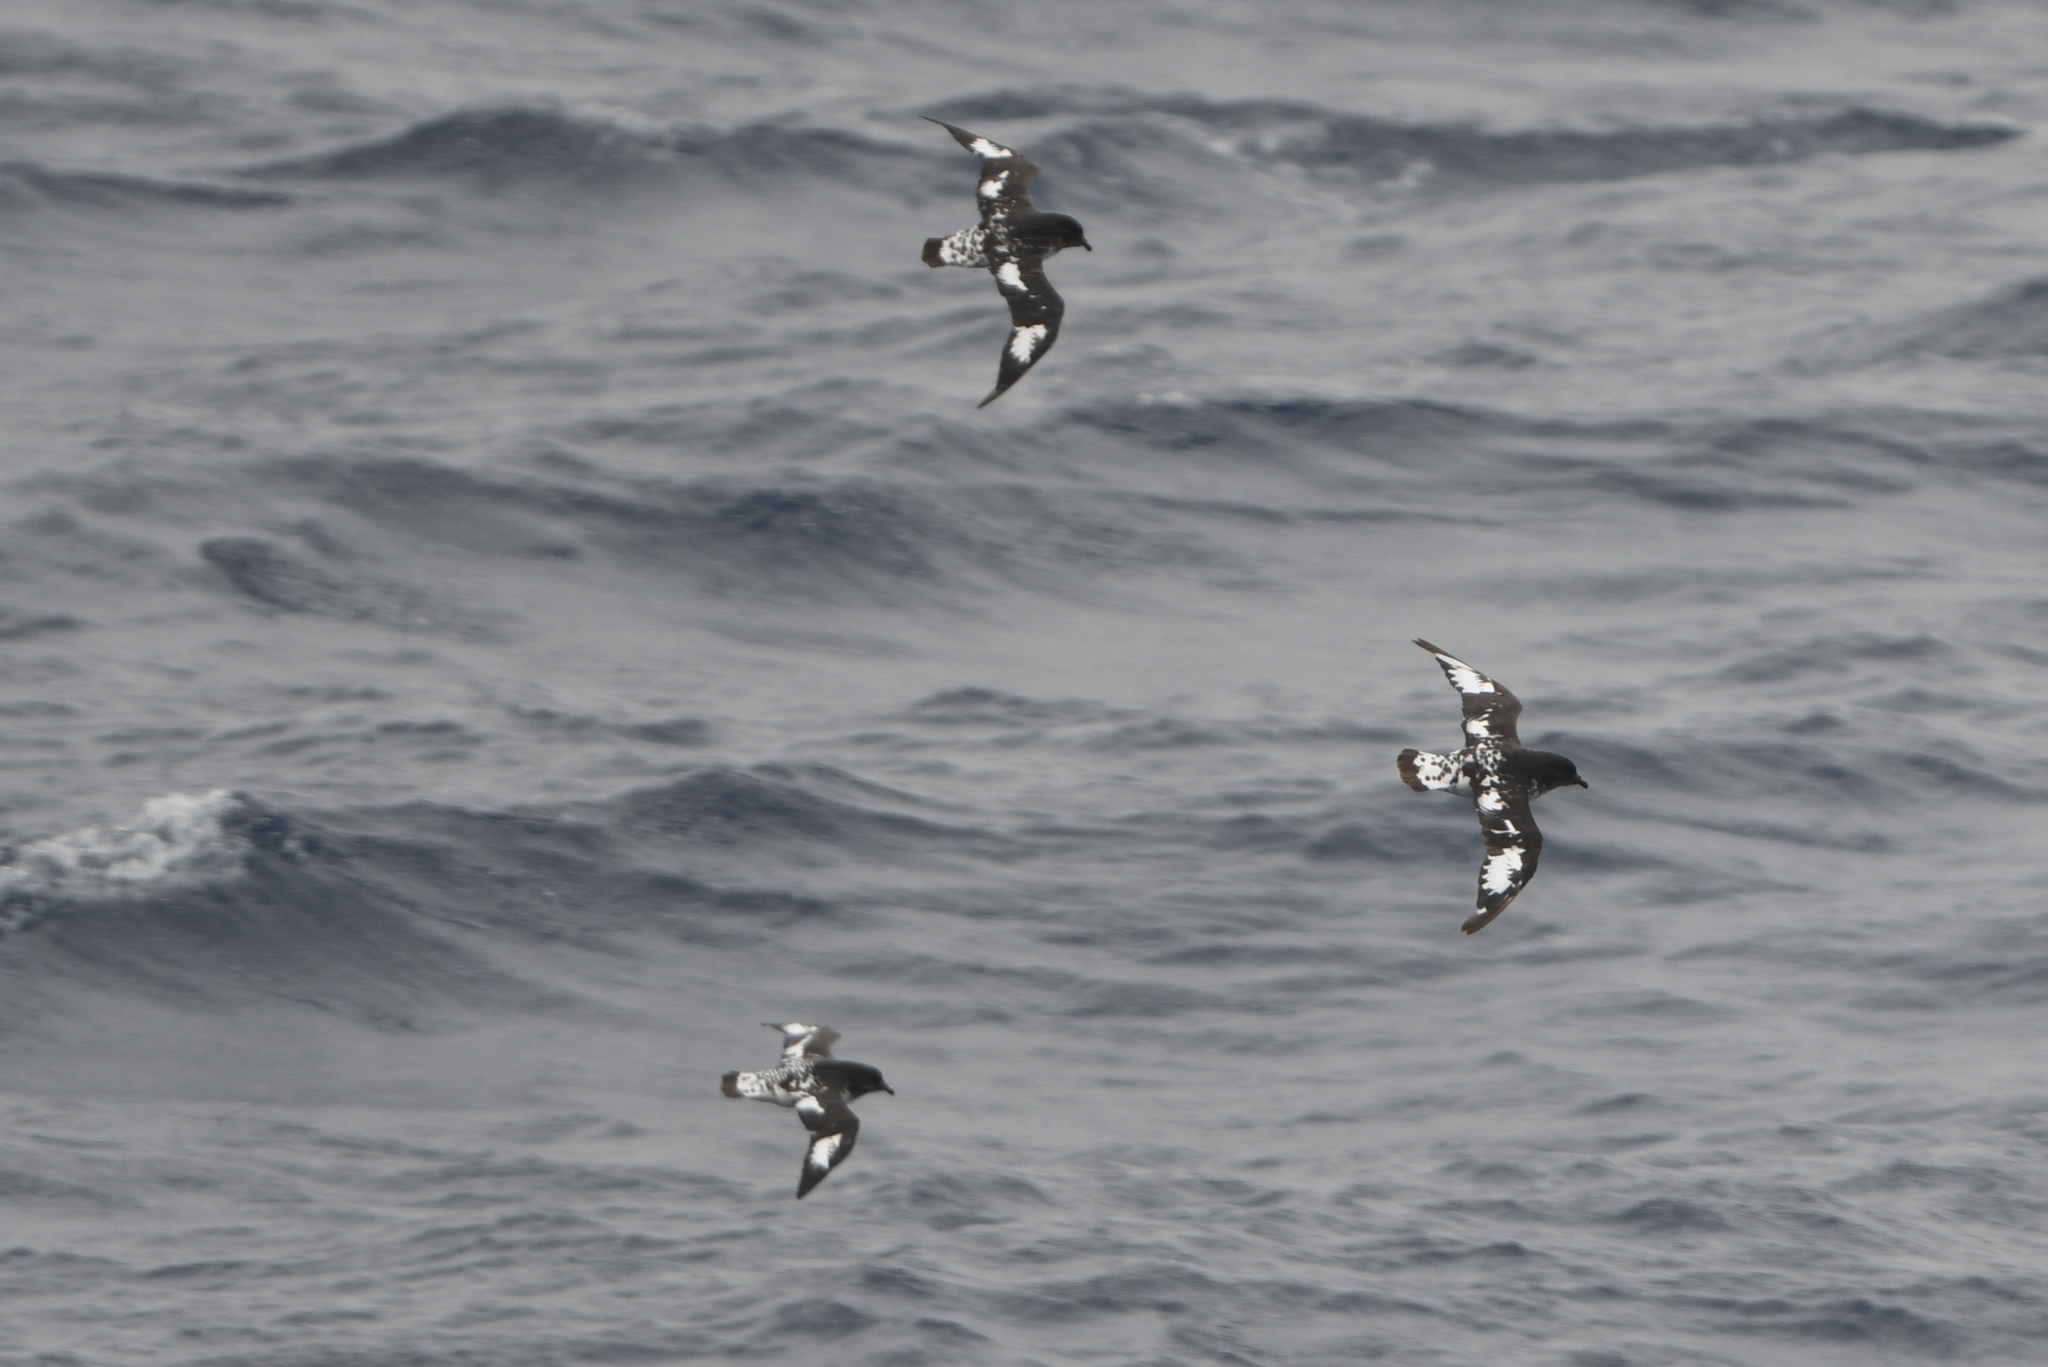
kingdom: Animalia
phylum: Chordata
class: Aves
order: Procellariiformes
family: Procellariidae
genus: Daption
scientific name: Daption capense
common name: Cape petrel
